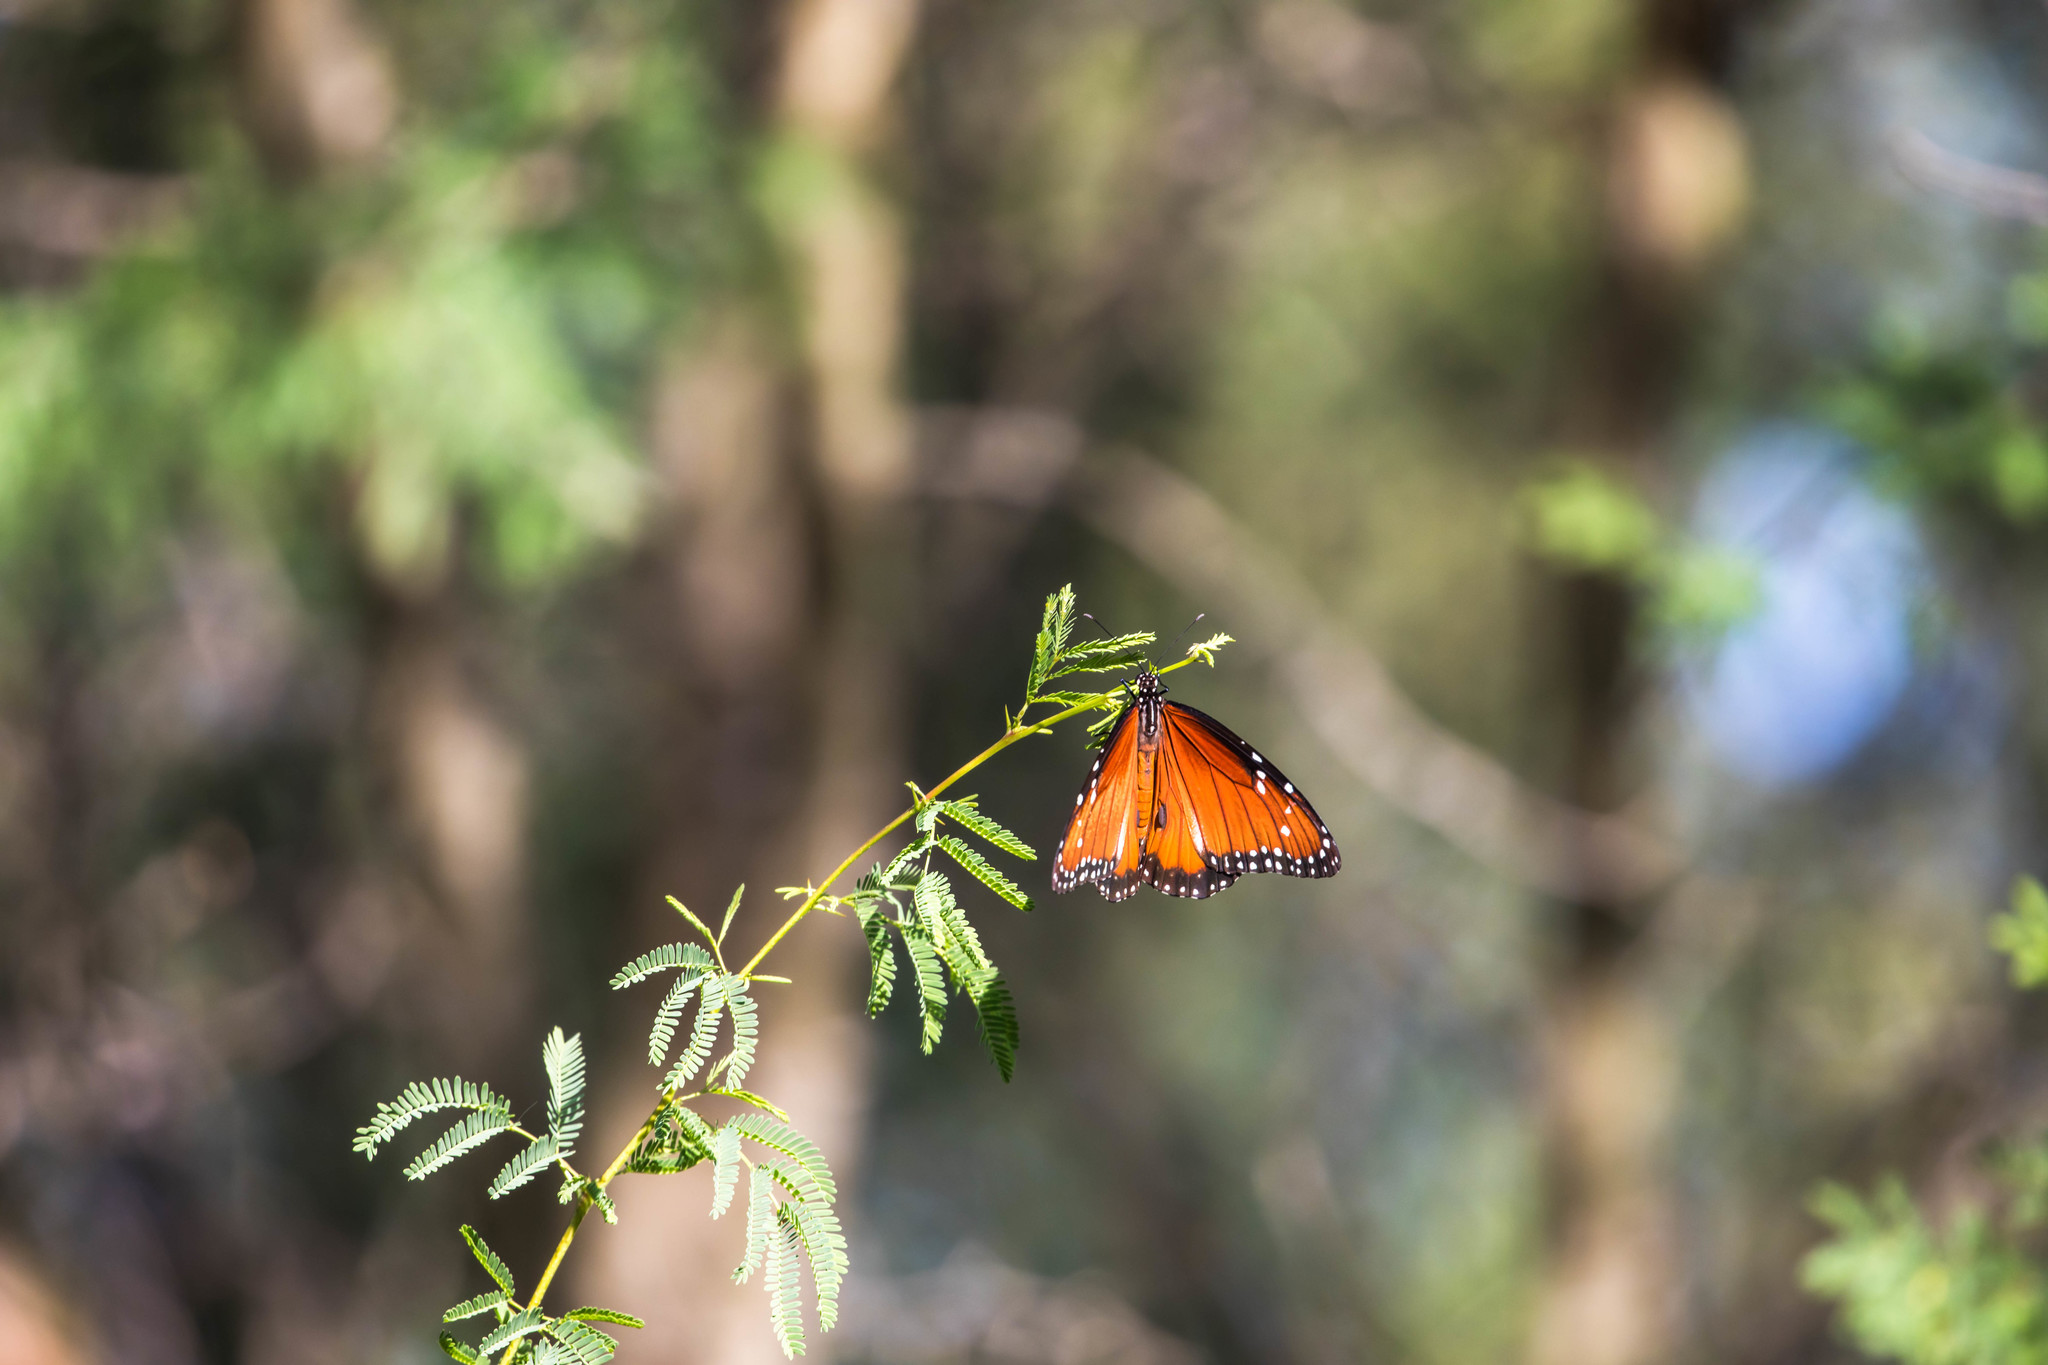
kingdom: Animalia
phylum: Arthropoda
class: Insecta
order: Lepidoptera
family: Nymphalidae
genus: Danaus
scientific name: Danaus eresimus
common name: Soldier
